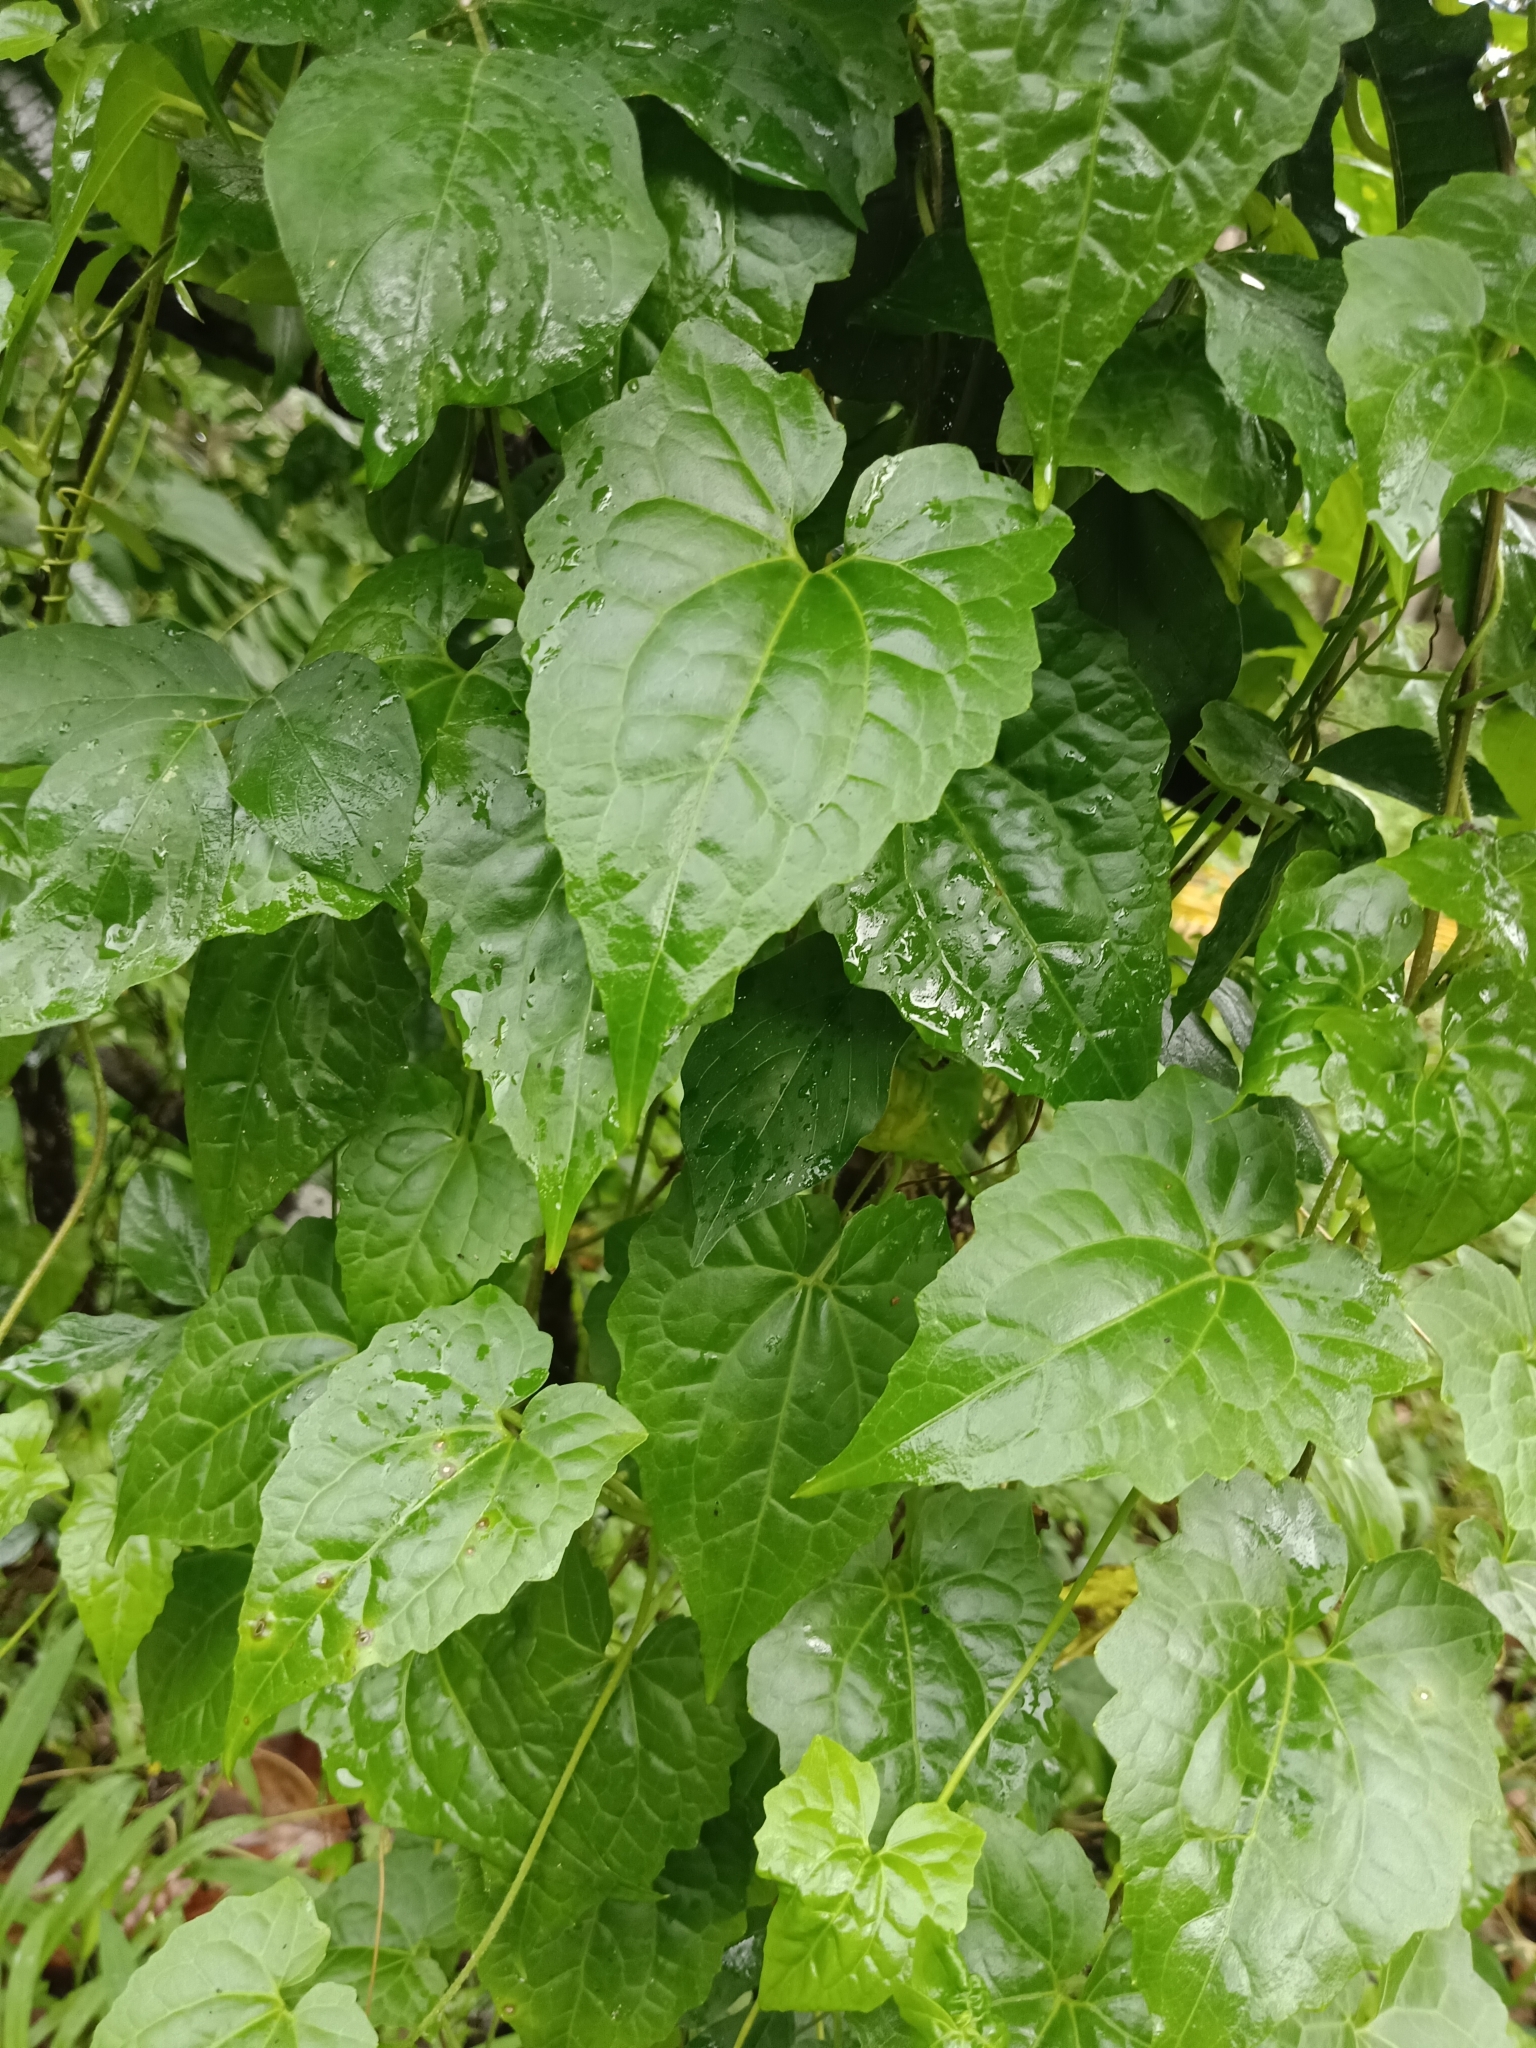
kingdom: Plantae
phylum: Tracheophyta
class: Magnoliopsida
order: Asterales
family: Asteraceae
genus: Mikania
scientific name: Mikania micrantha
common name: Mile-a-minute
